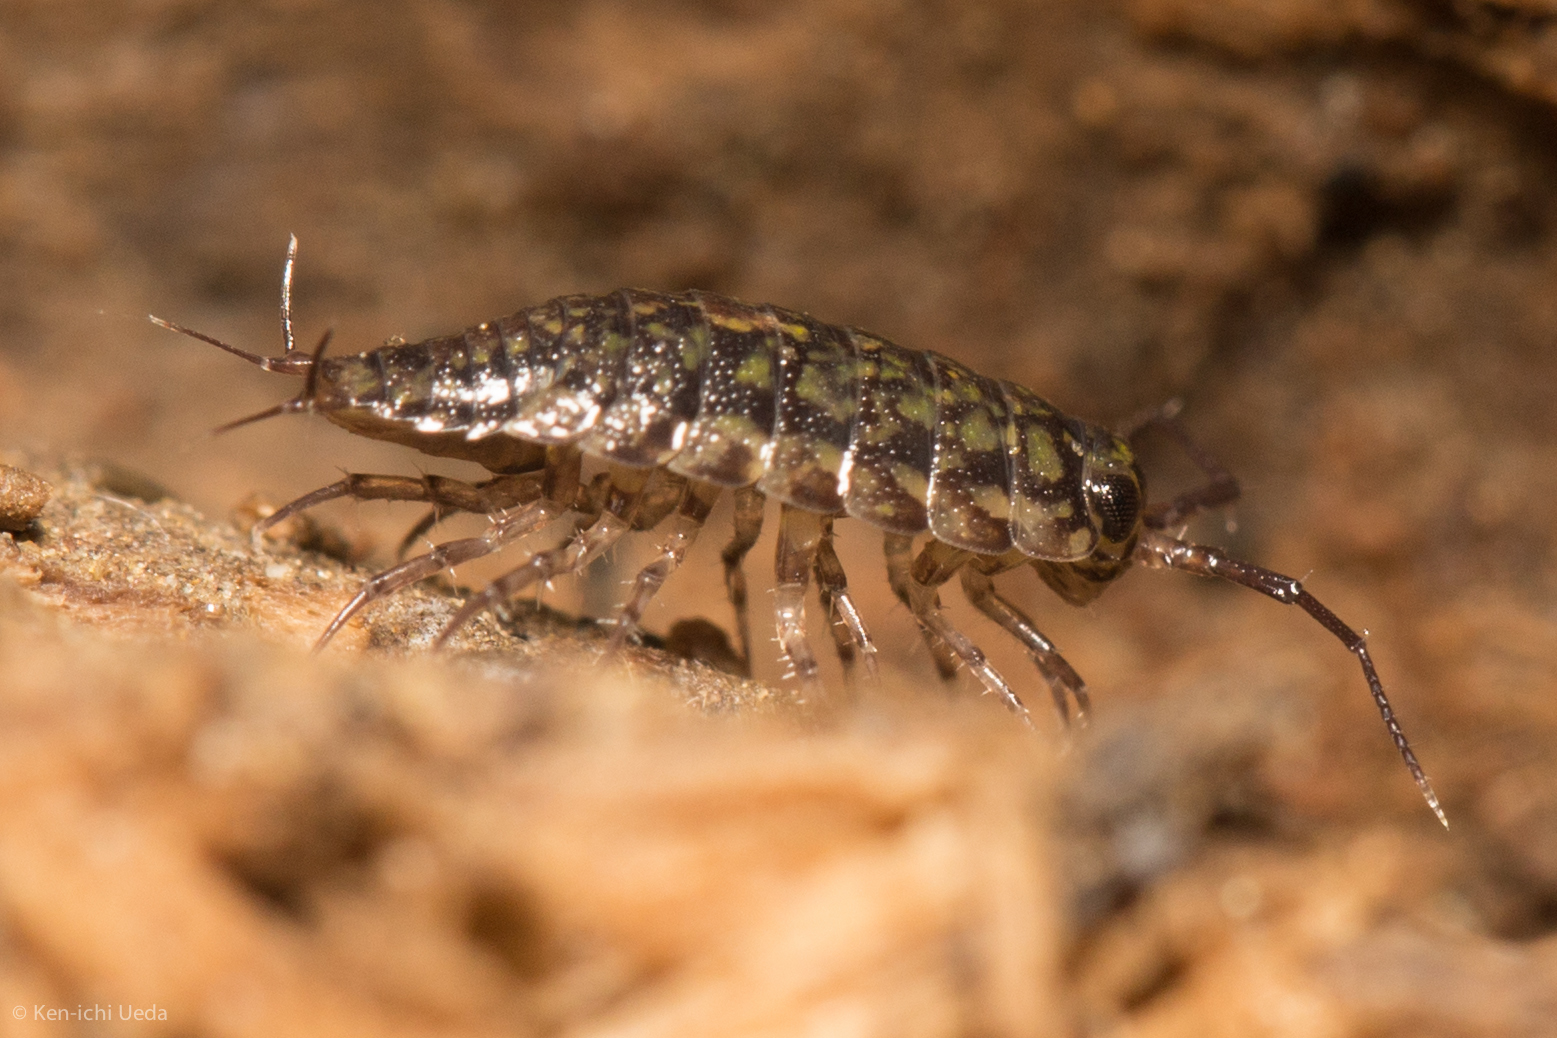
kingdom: Animalia
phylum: Arthropoda
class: Malacostraca
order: Isopoda
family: Ligiidae
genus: Ligidium
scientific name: Ligidium latum
